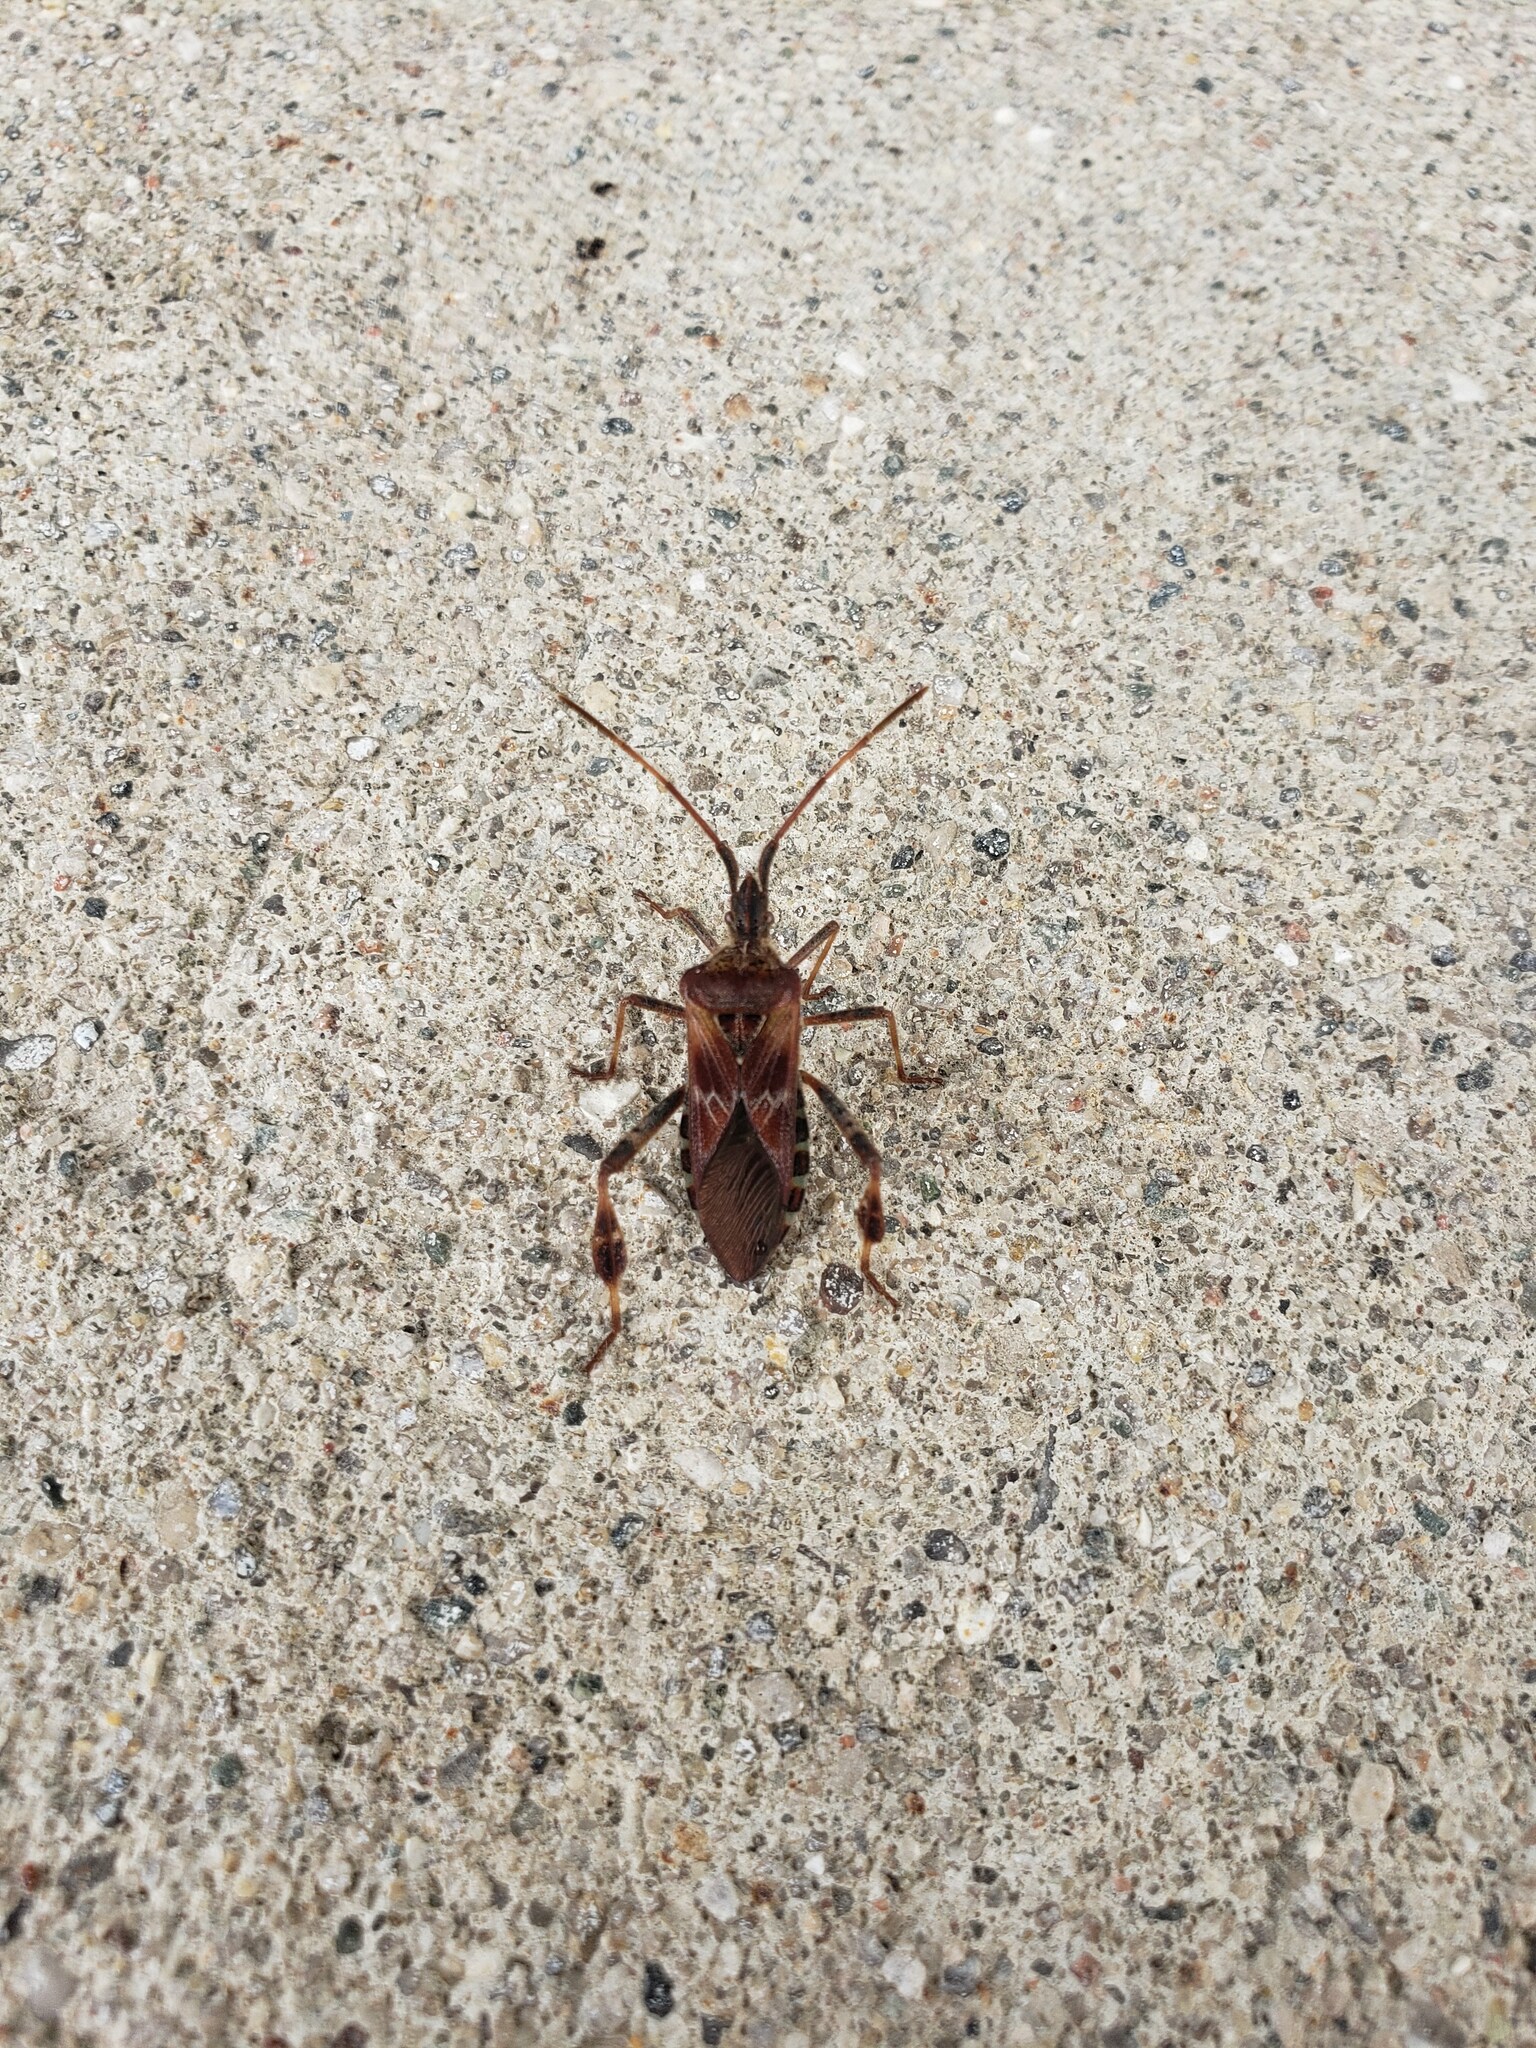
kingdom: Animalia
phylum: Arthropoda
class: Insecta
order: Hemiptera
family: Coreidae
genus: Leptoglossus
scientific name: Leptoglossus occidentalis
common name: Western conifer-seed bug
